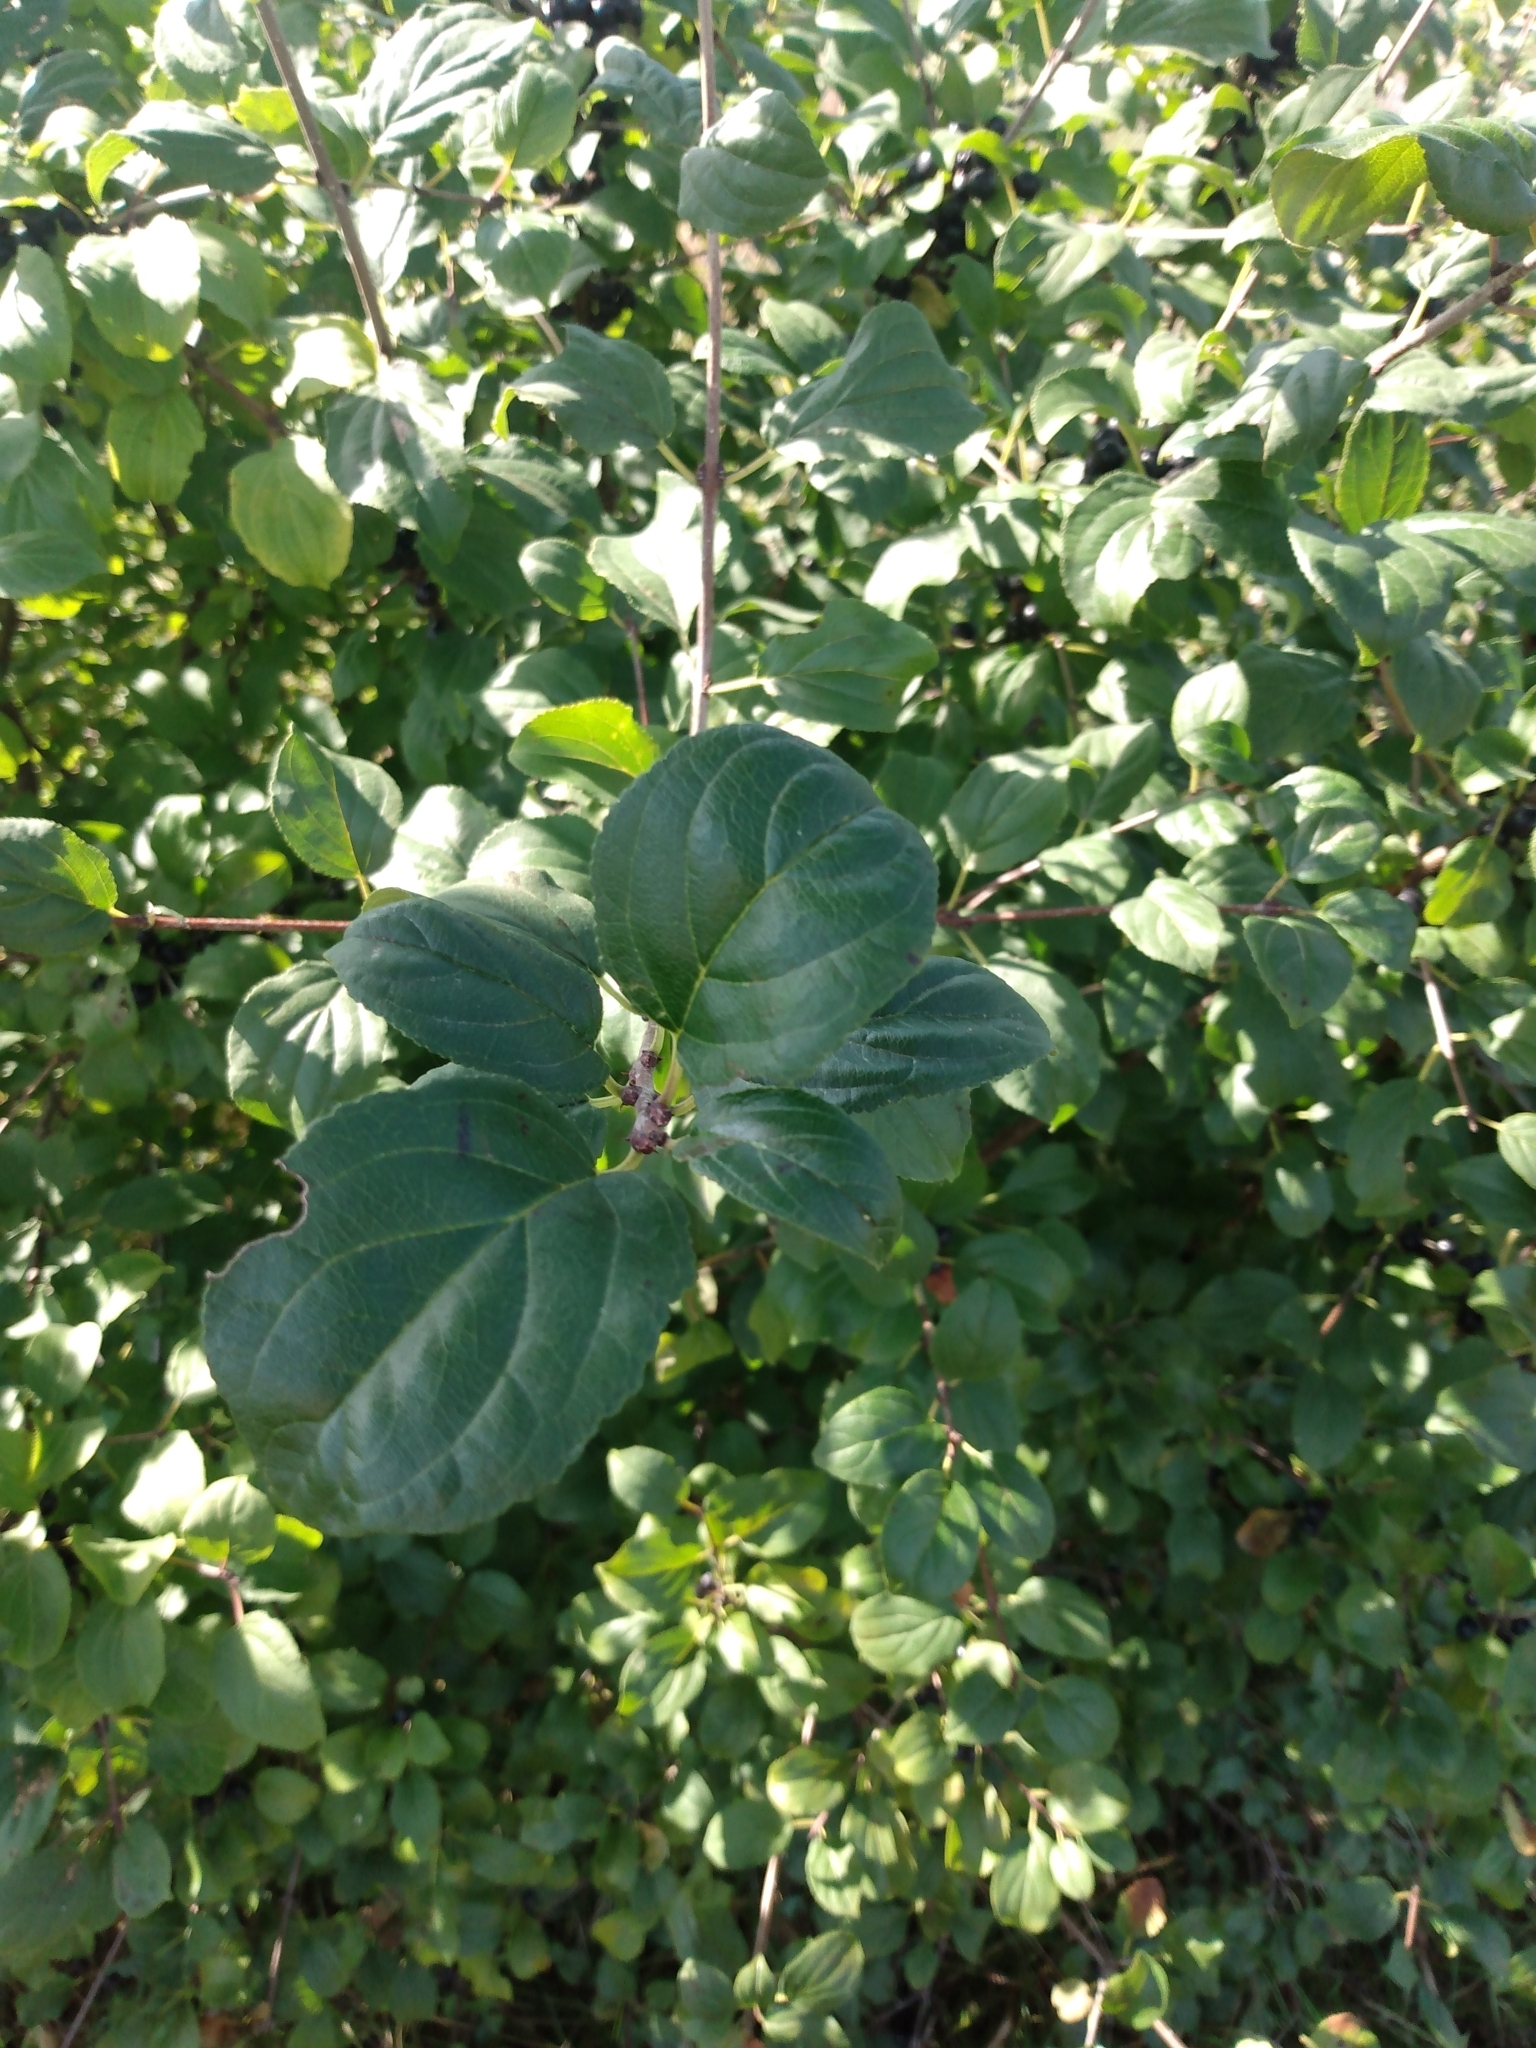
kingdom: Plantae
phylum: Tracheophyta
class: Magnoliopsida
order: Rosales
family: Rhamnaceae
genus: Rhamnus
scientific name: Rhamnus cathartica
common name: Common buckthorn
